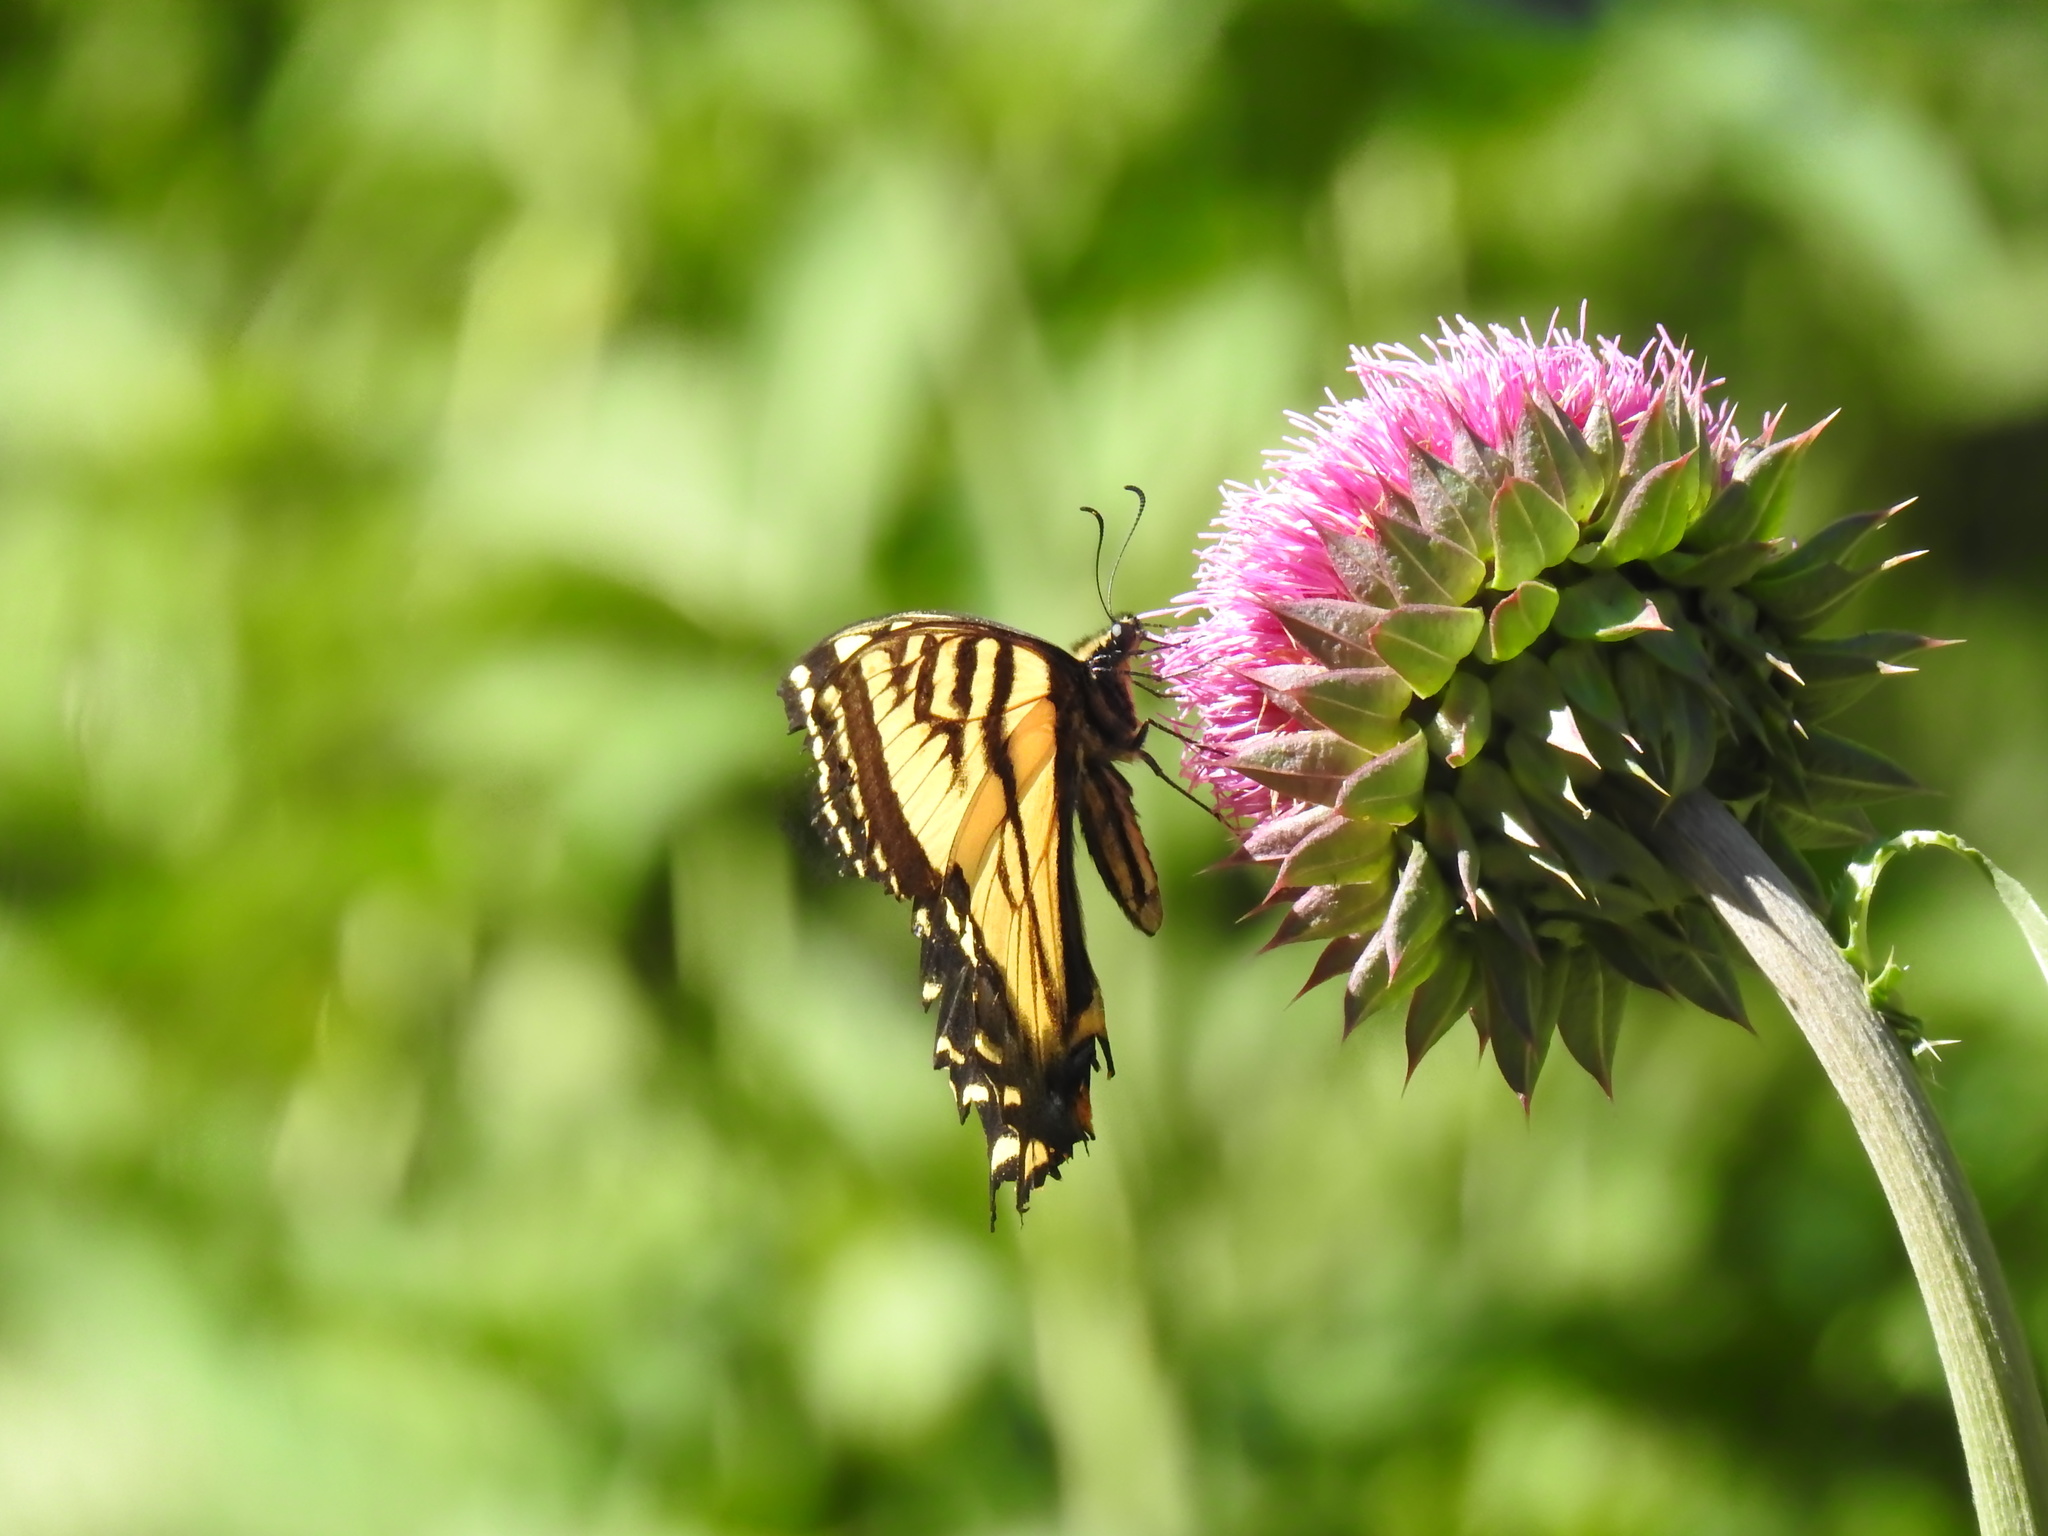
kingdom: Animalia
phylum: Arthropoda
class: Insecta
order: Lepidoptera
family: Papilionidae
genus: Papilio
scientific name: Papilio rutulus
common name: Western tiger swallowtail
